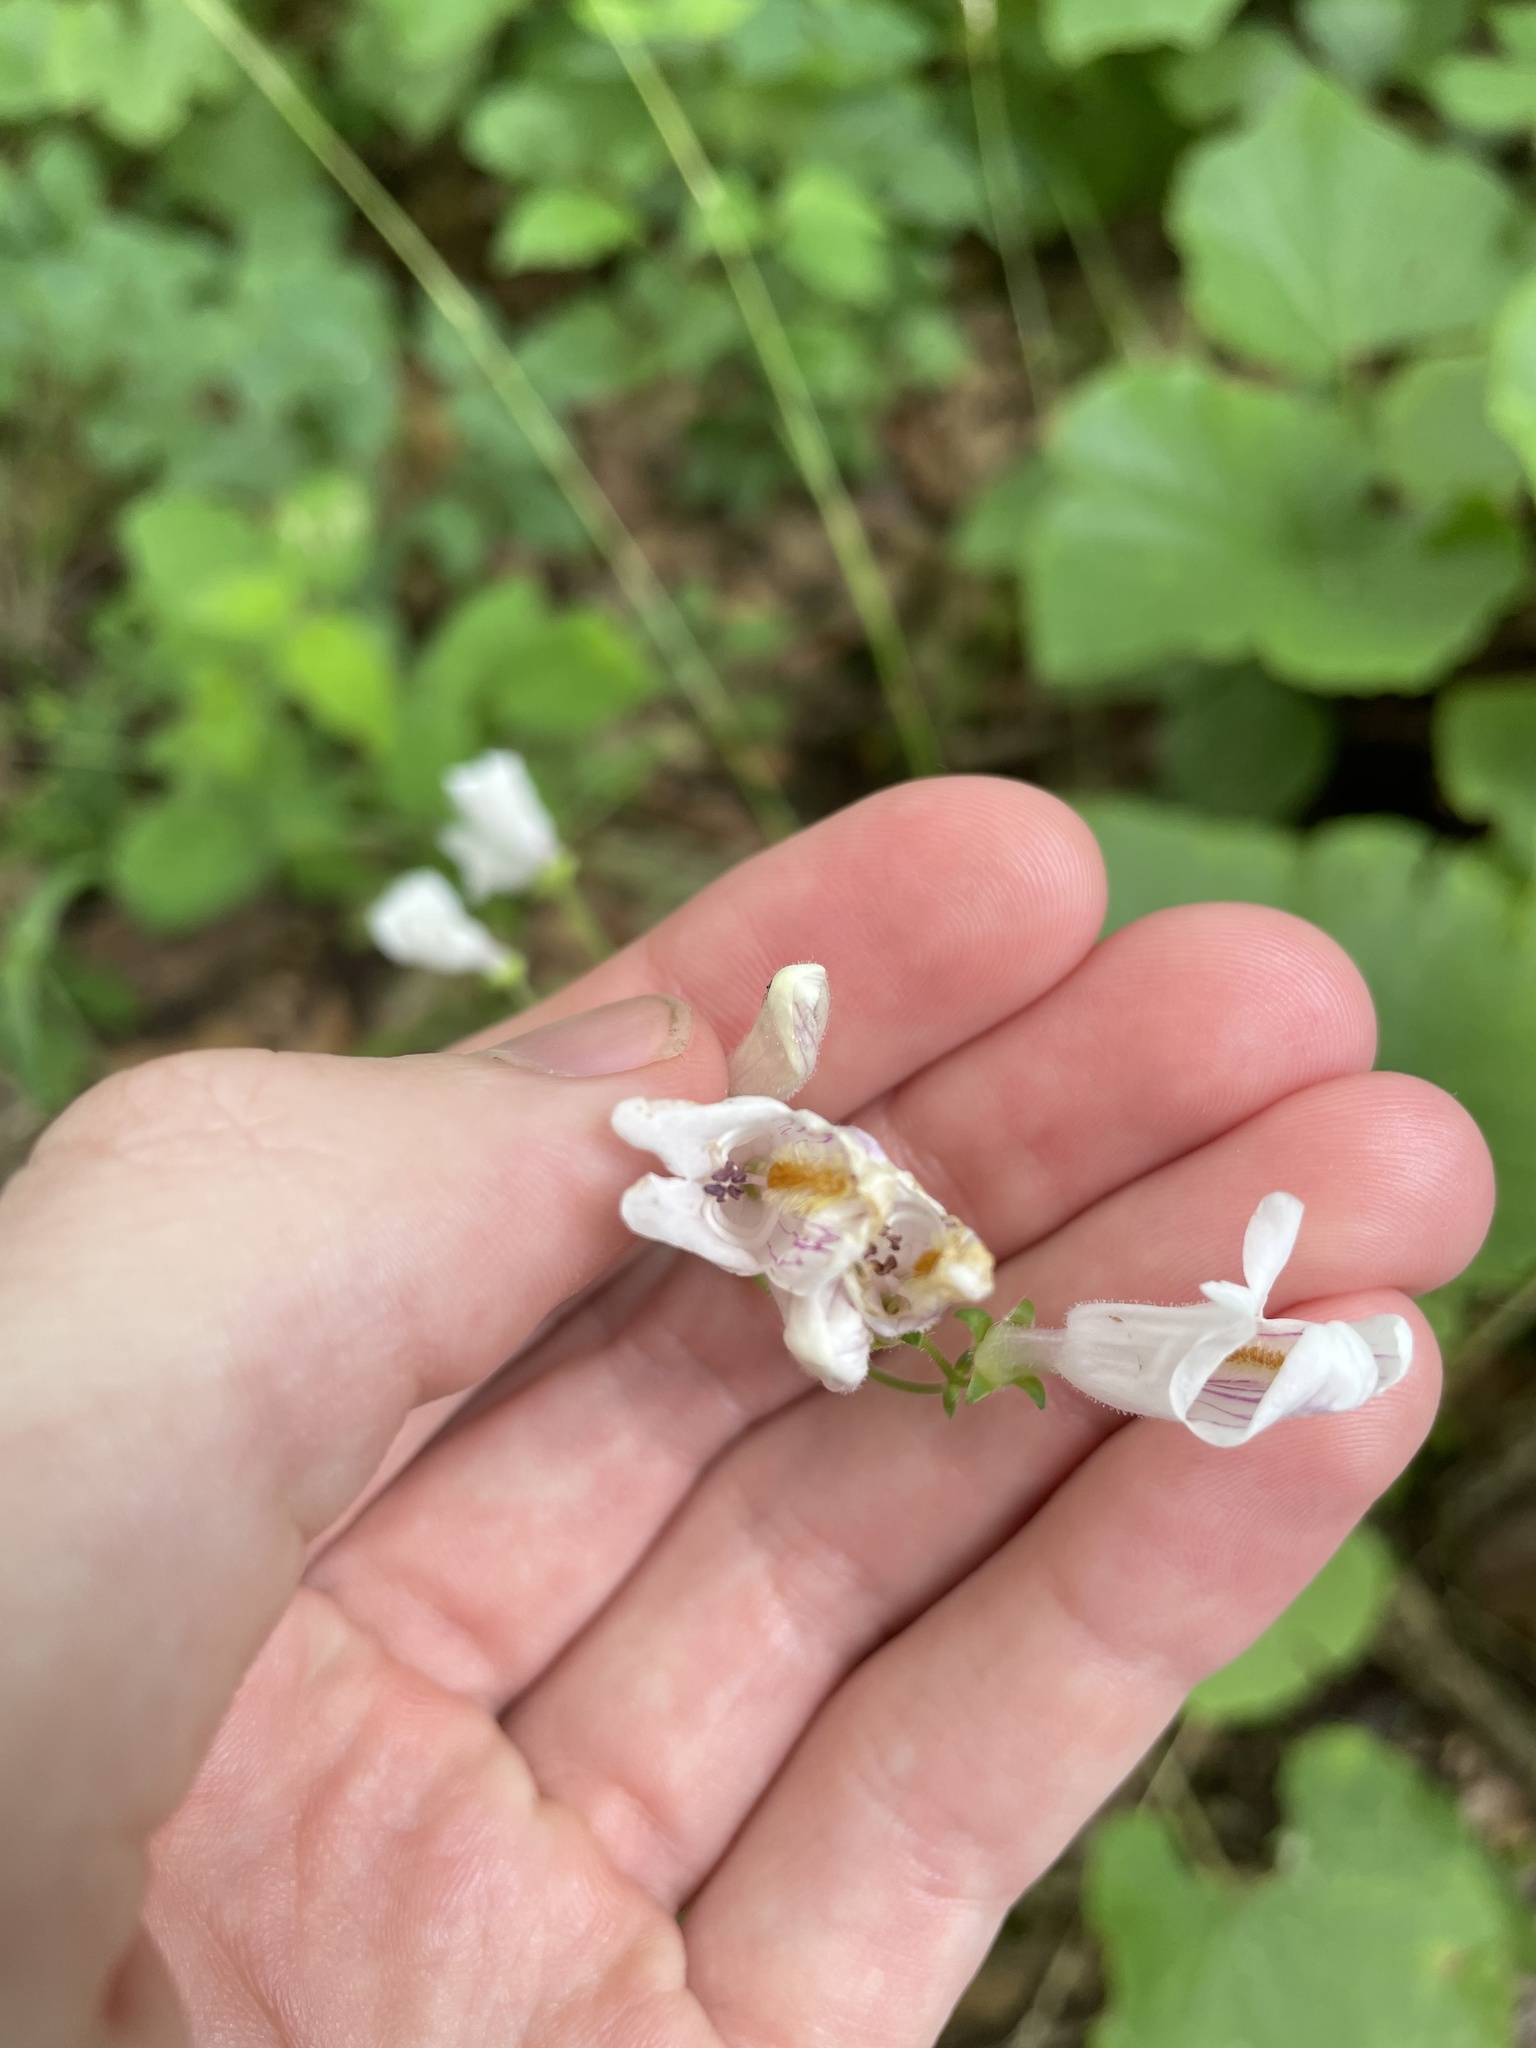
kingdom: Plantae
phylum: Tracheophyta
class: Magnoliopsida
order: Lamiales
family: Plantaginaceae
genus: Penstemon
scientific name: Penstemon laxiflorus
